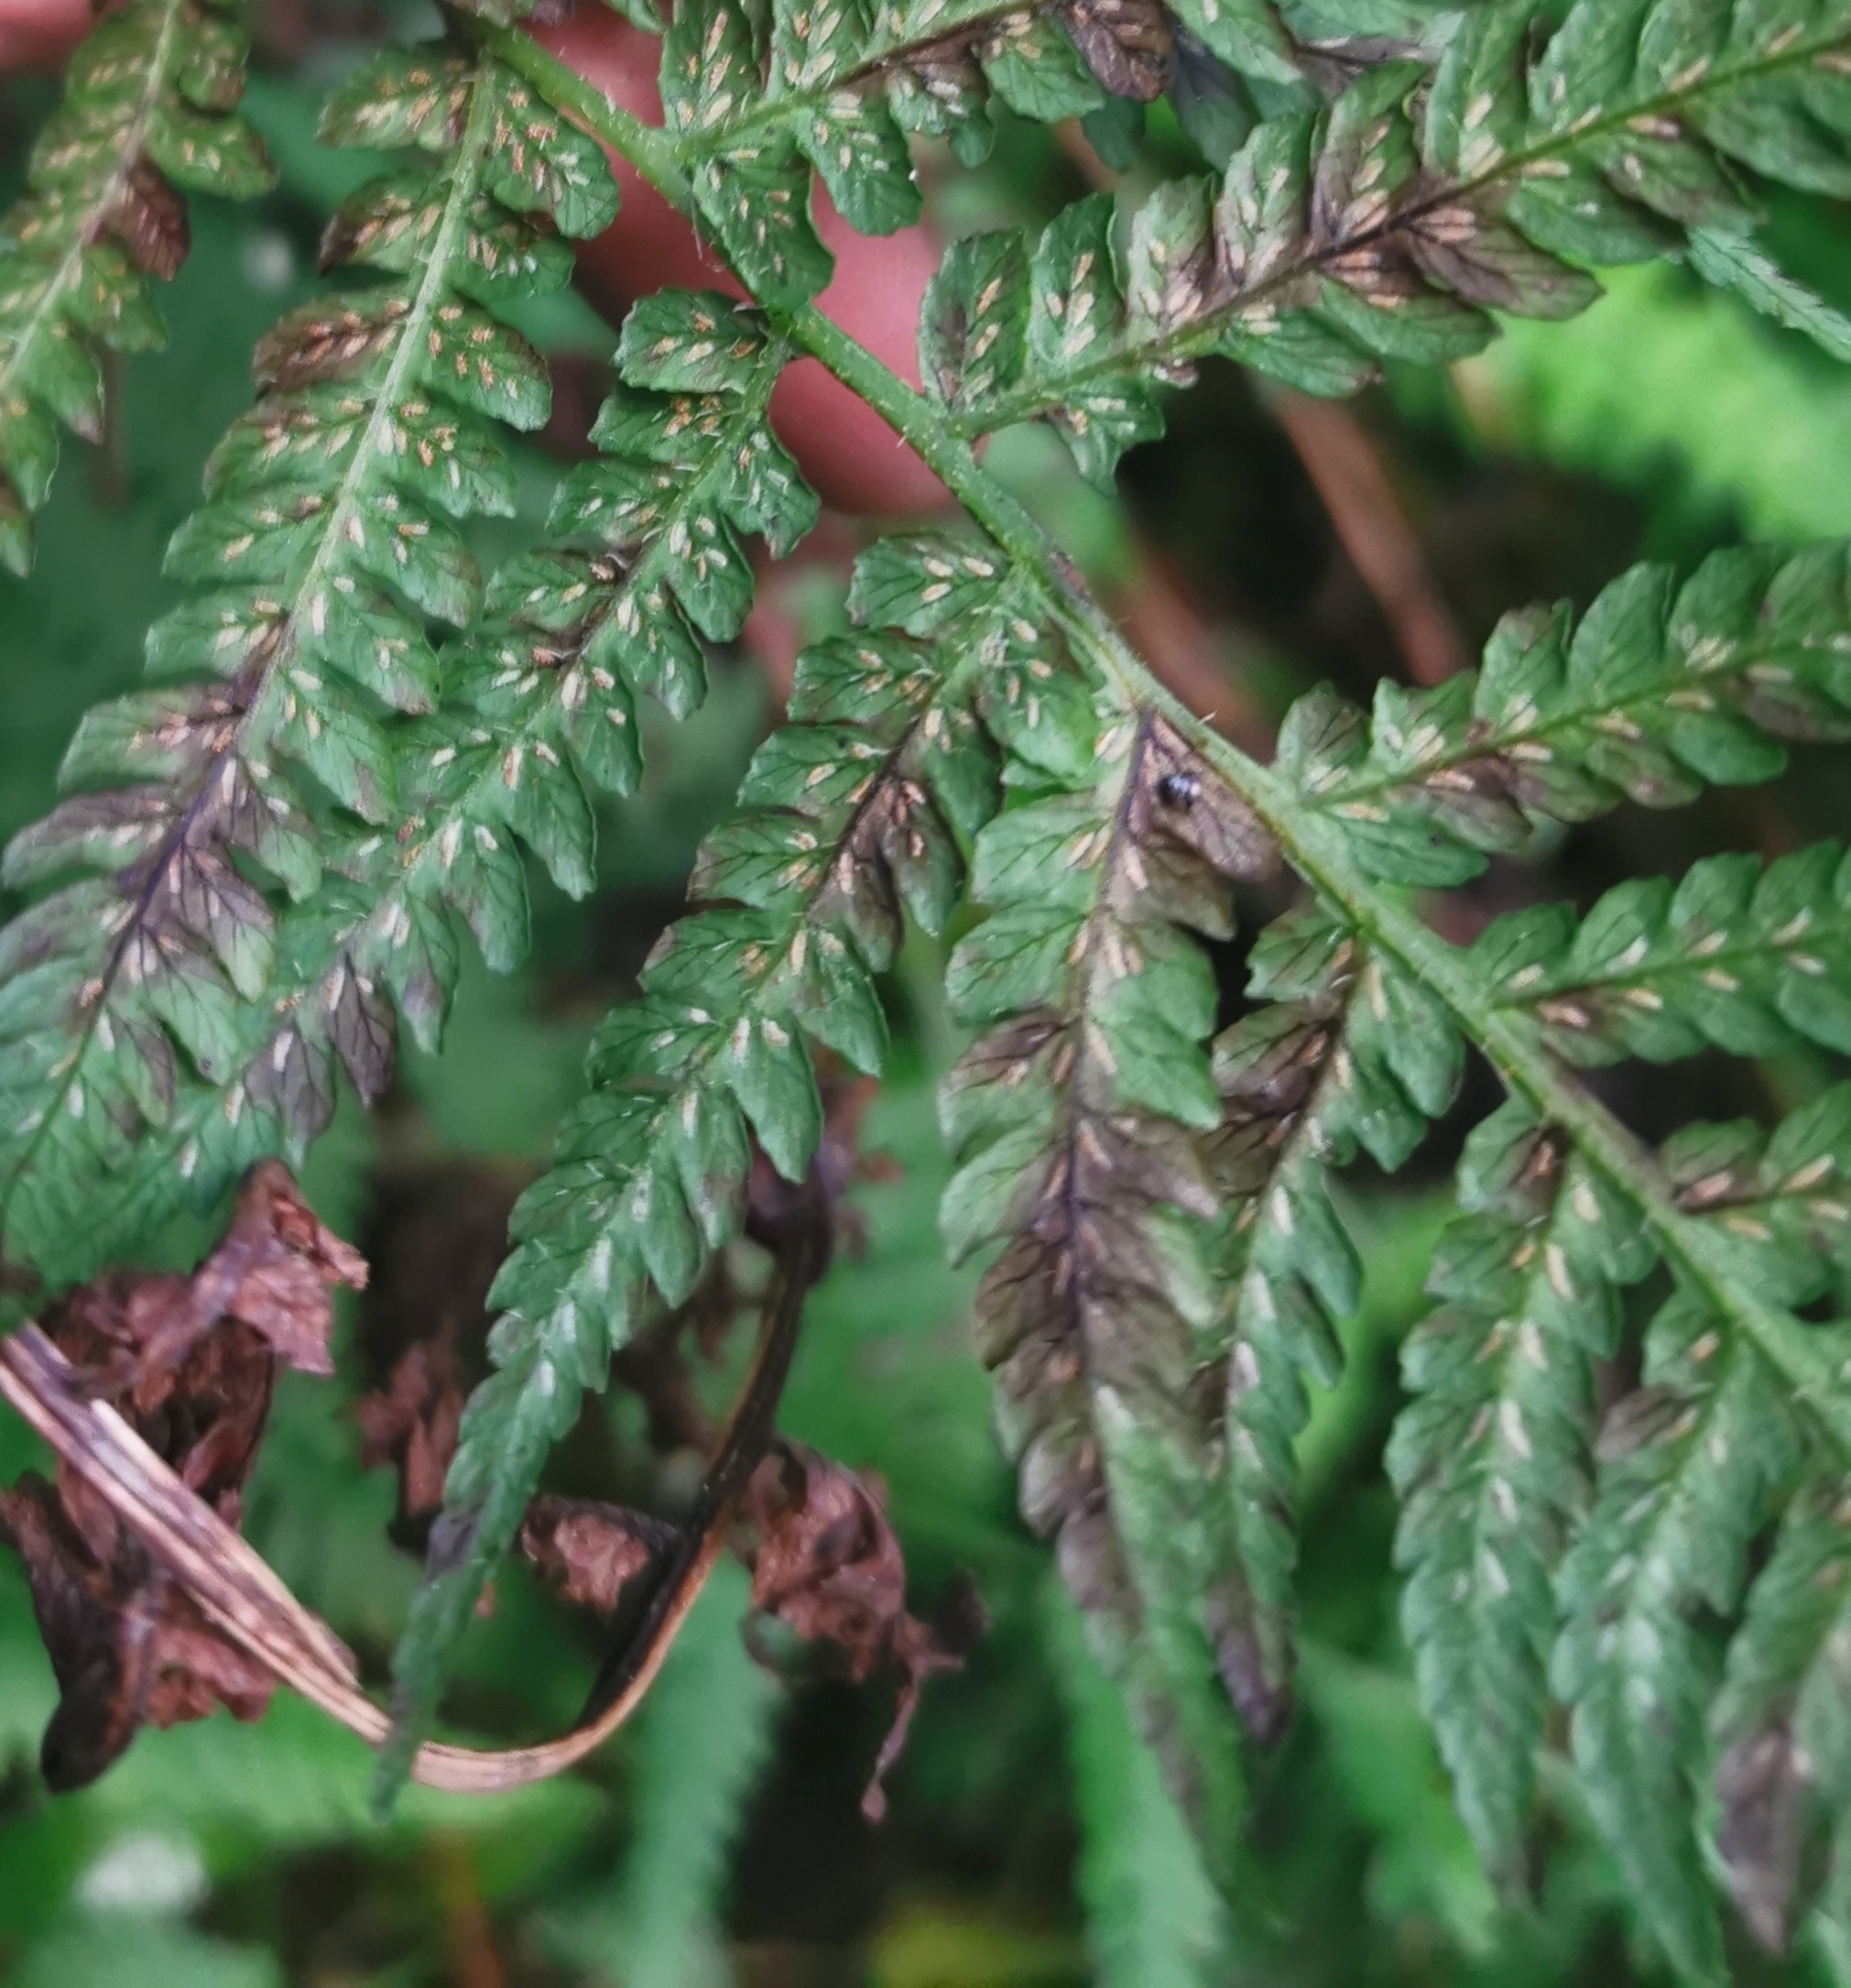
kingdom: Plantae
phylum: Tracheophyta
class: Polypodiopsida
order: Polypodiales
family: Athyriaceae
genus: Diplazium
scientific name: Diplazium congruum
